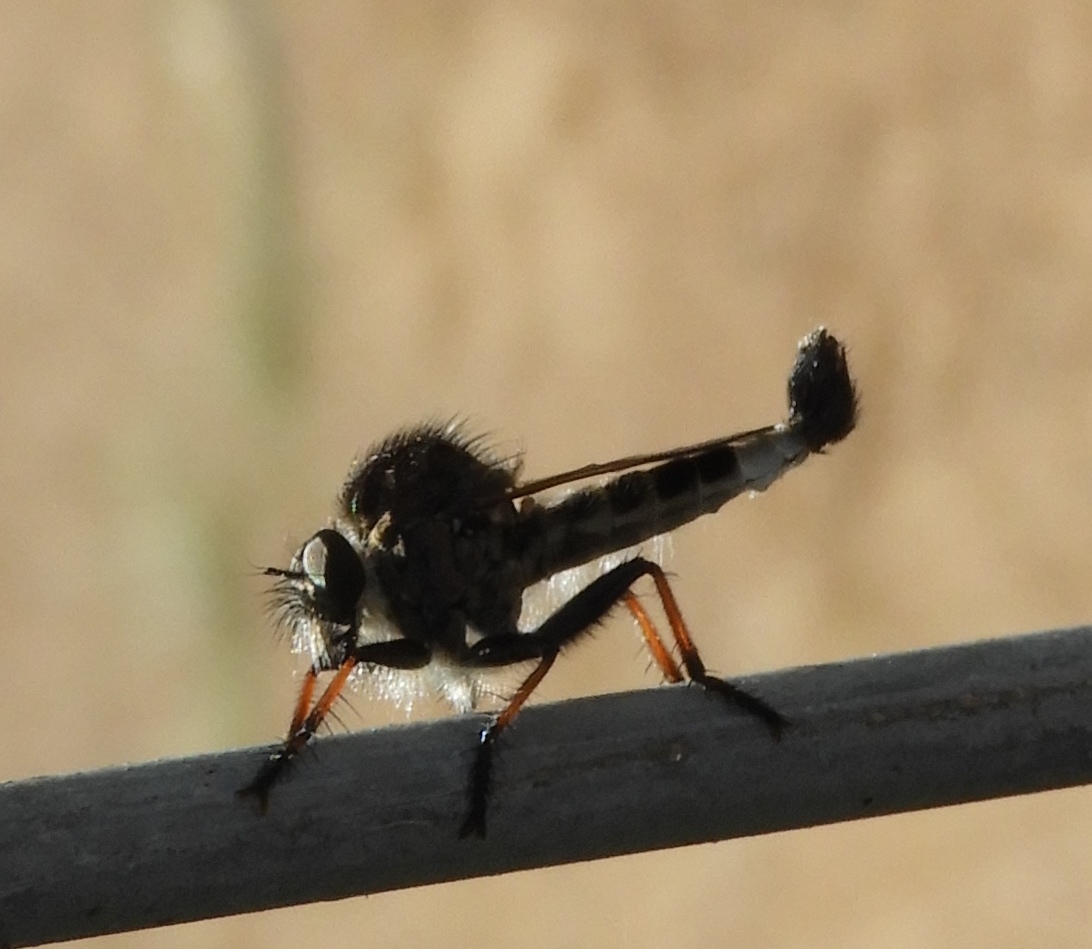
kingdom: Animalia
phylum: Arthropoda
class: Insecta
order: Diptera
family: Asilidae
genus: Efferia
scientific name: Efferia
